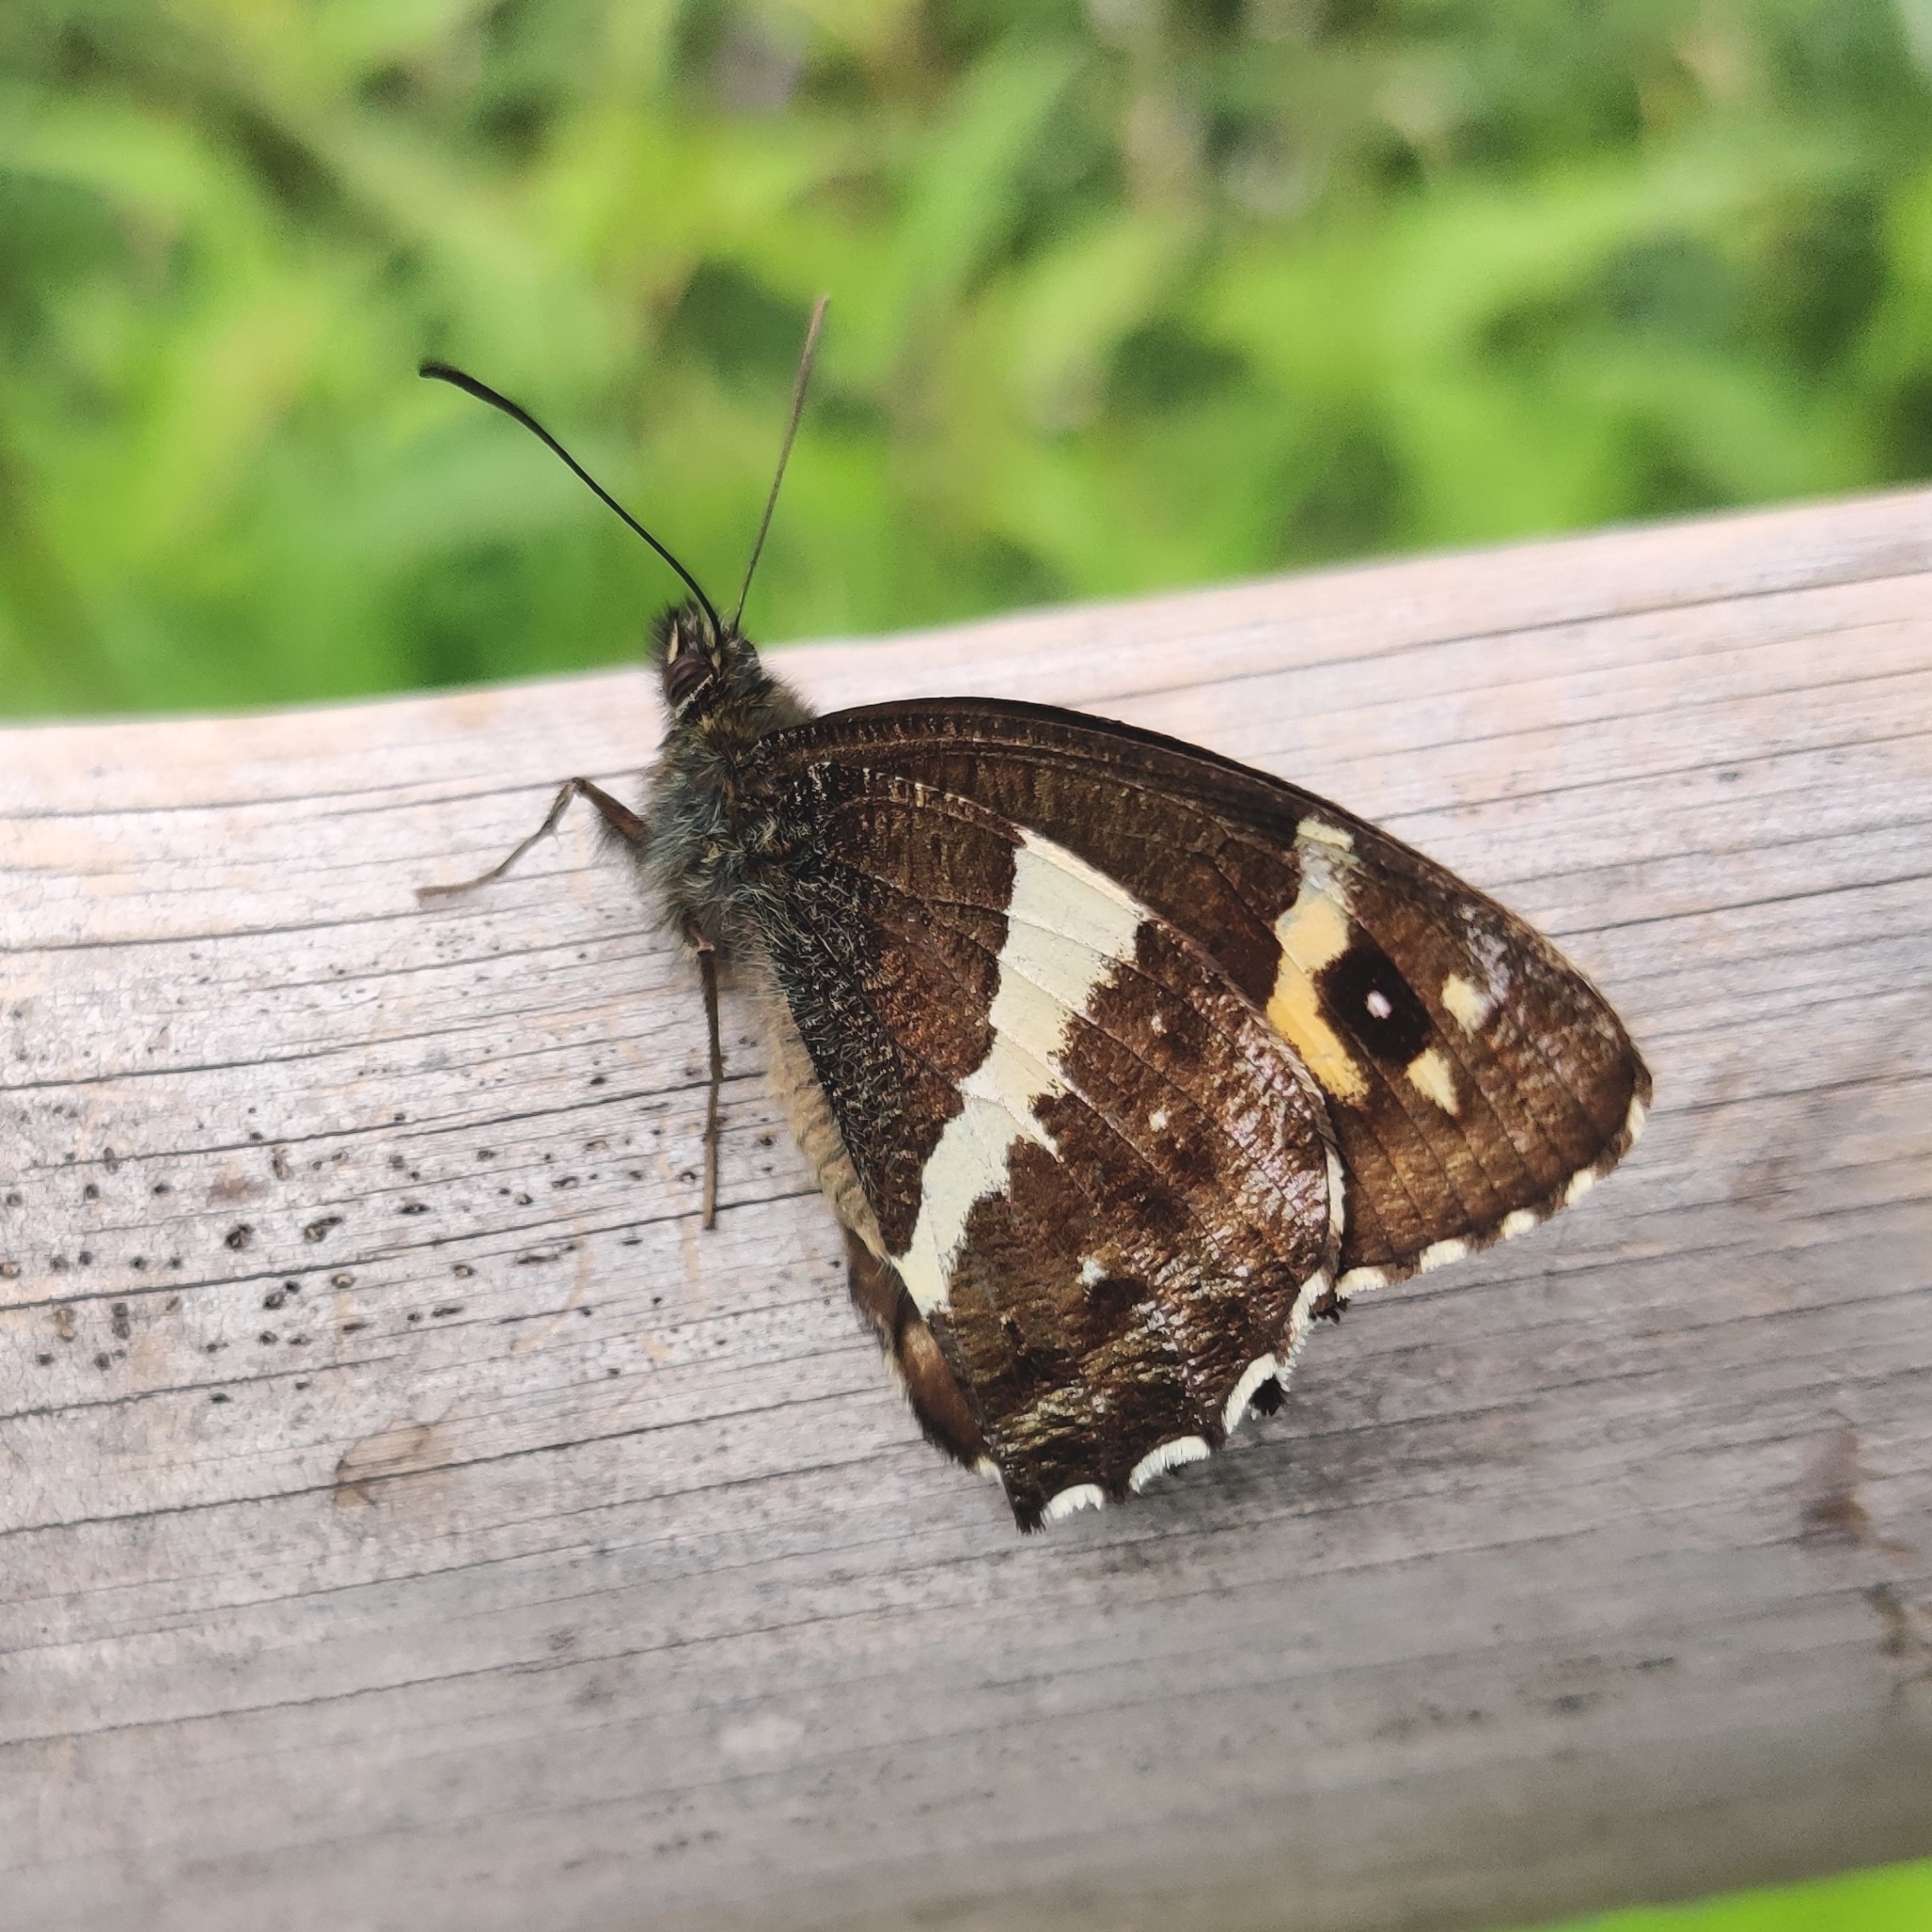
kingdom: Animalia
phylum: Arthropoda
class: Insecta
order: Lepidoptera
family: Nymphalidae
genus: Satyrus
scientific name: Satyrus Aulocera swaha
